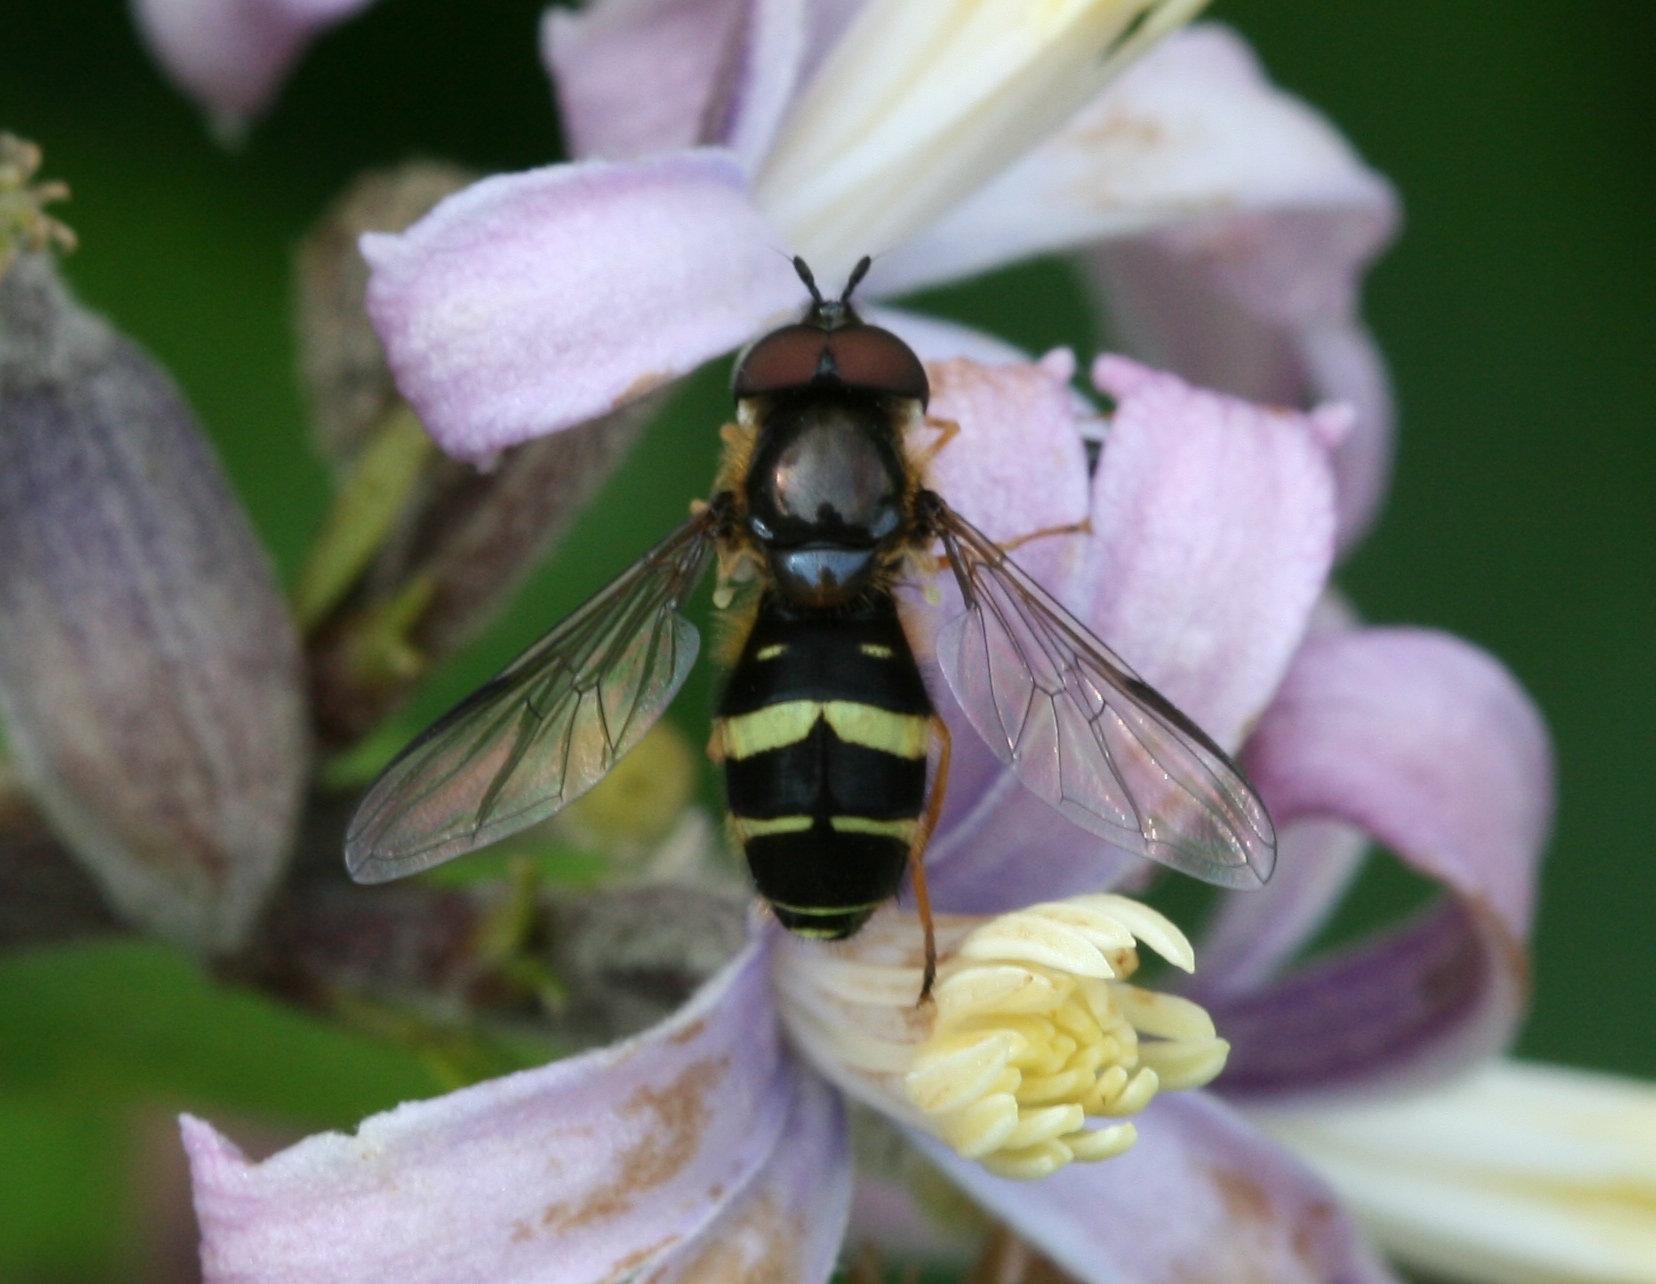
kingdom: Animalia
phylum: Arthropoda
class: Insecta
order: Diptera
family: Syrphidae
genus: Dasysyrphus
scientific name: Dasysyrphus tricinctus
